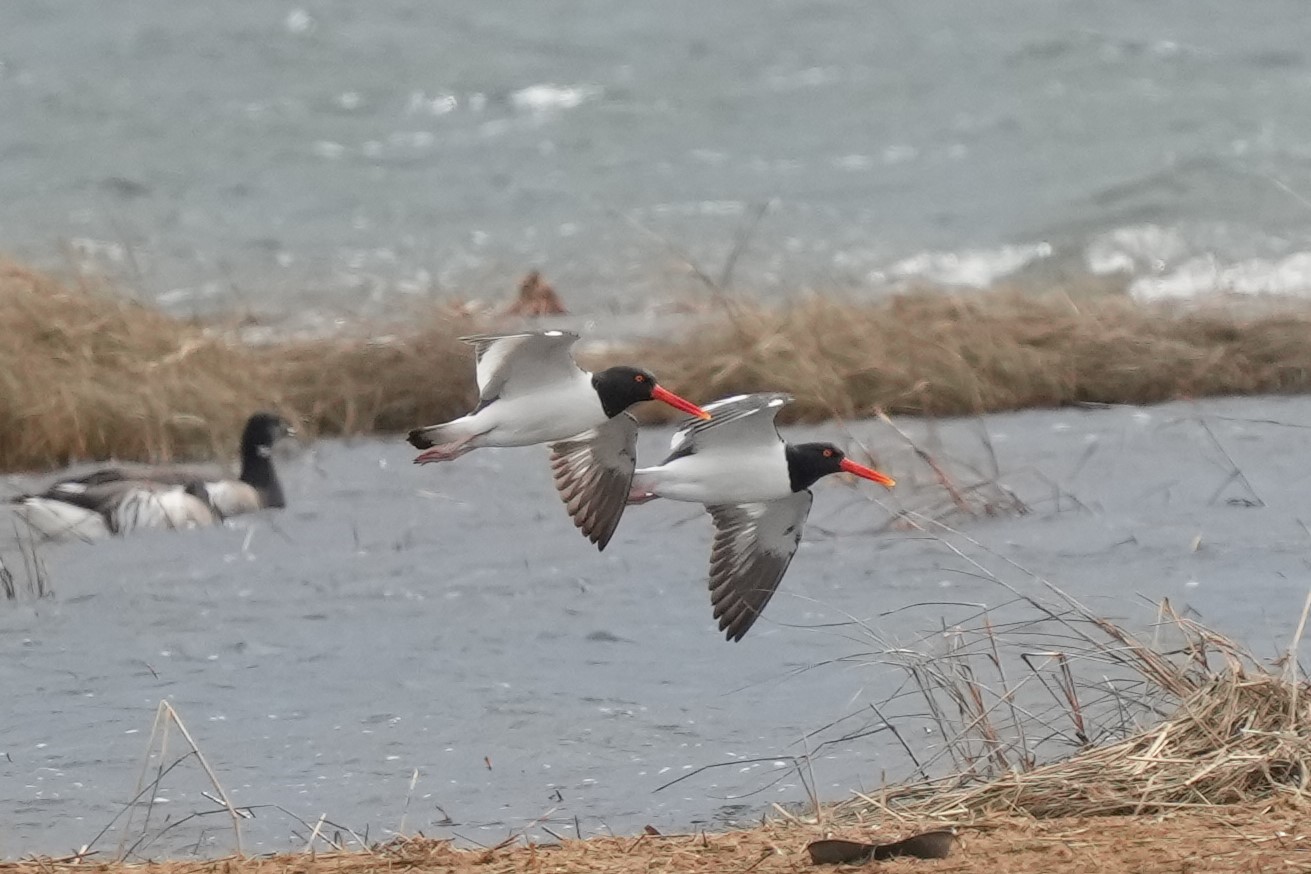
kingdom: Animalia
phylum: Chordata
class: Aves
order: Charadriiformes
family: Haematopodidae
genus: Haematopus
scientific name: Haematopus palliatus
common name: American oystercatcher
